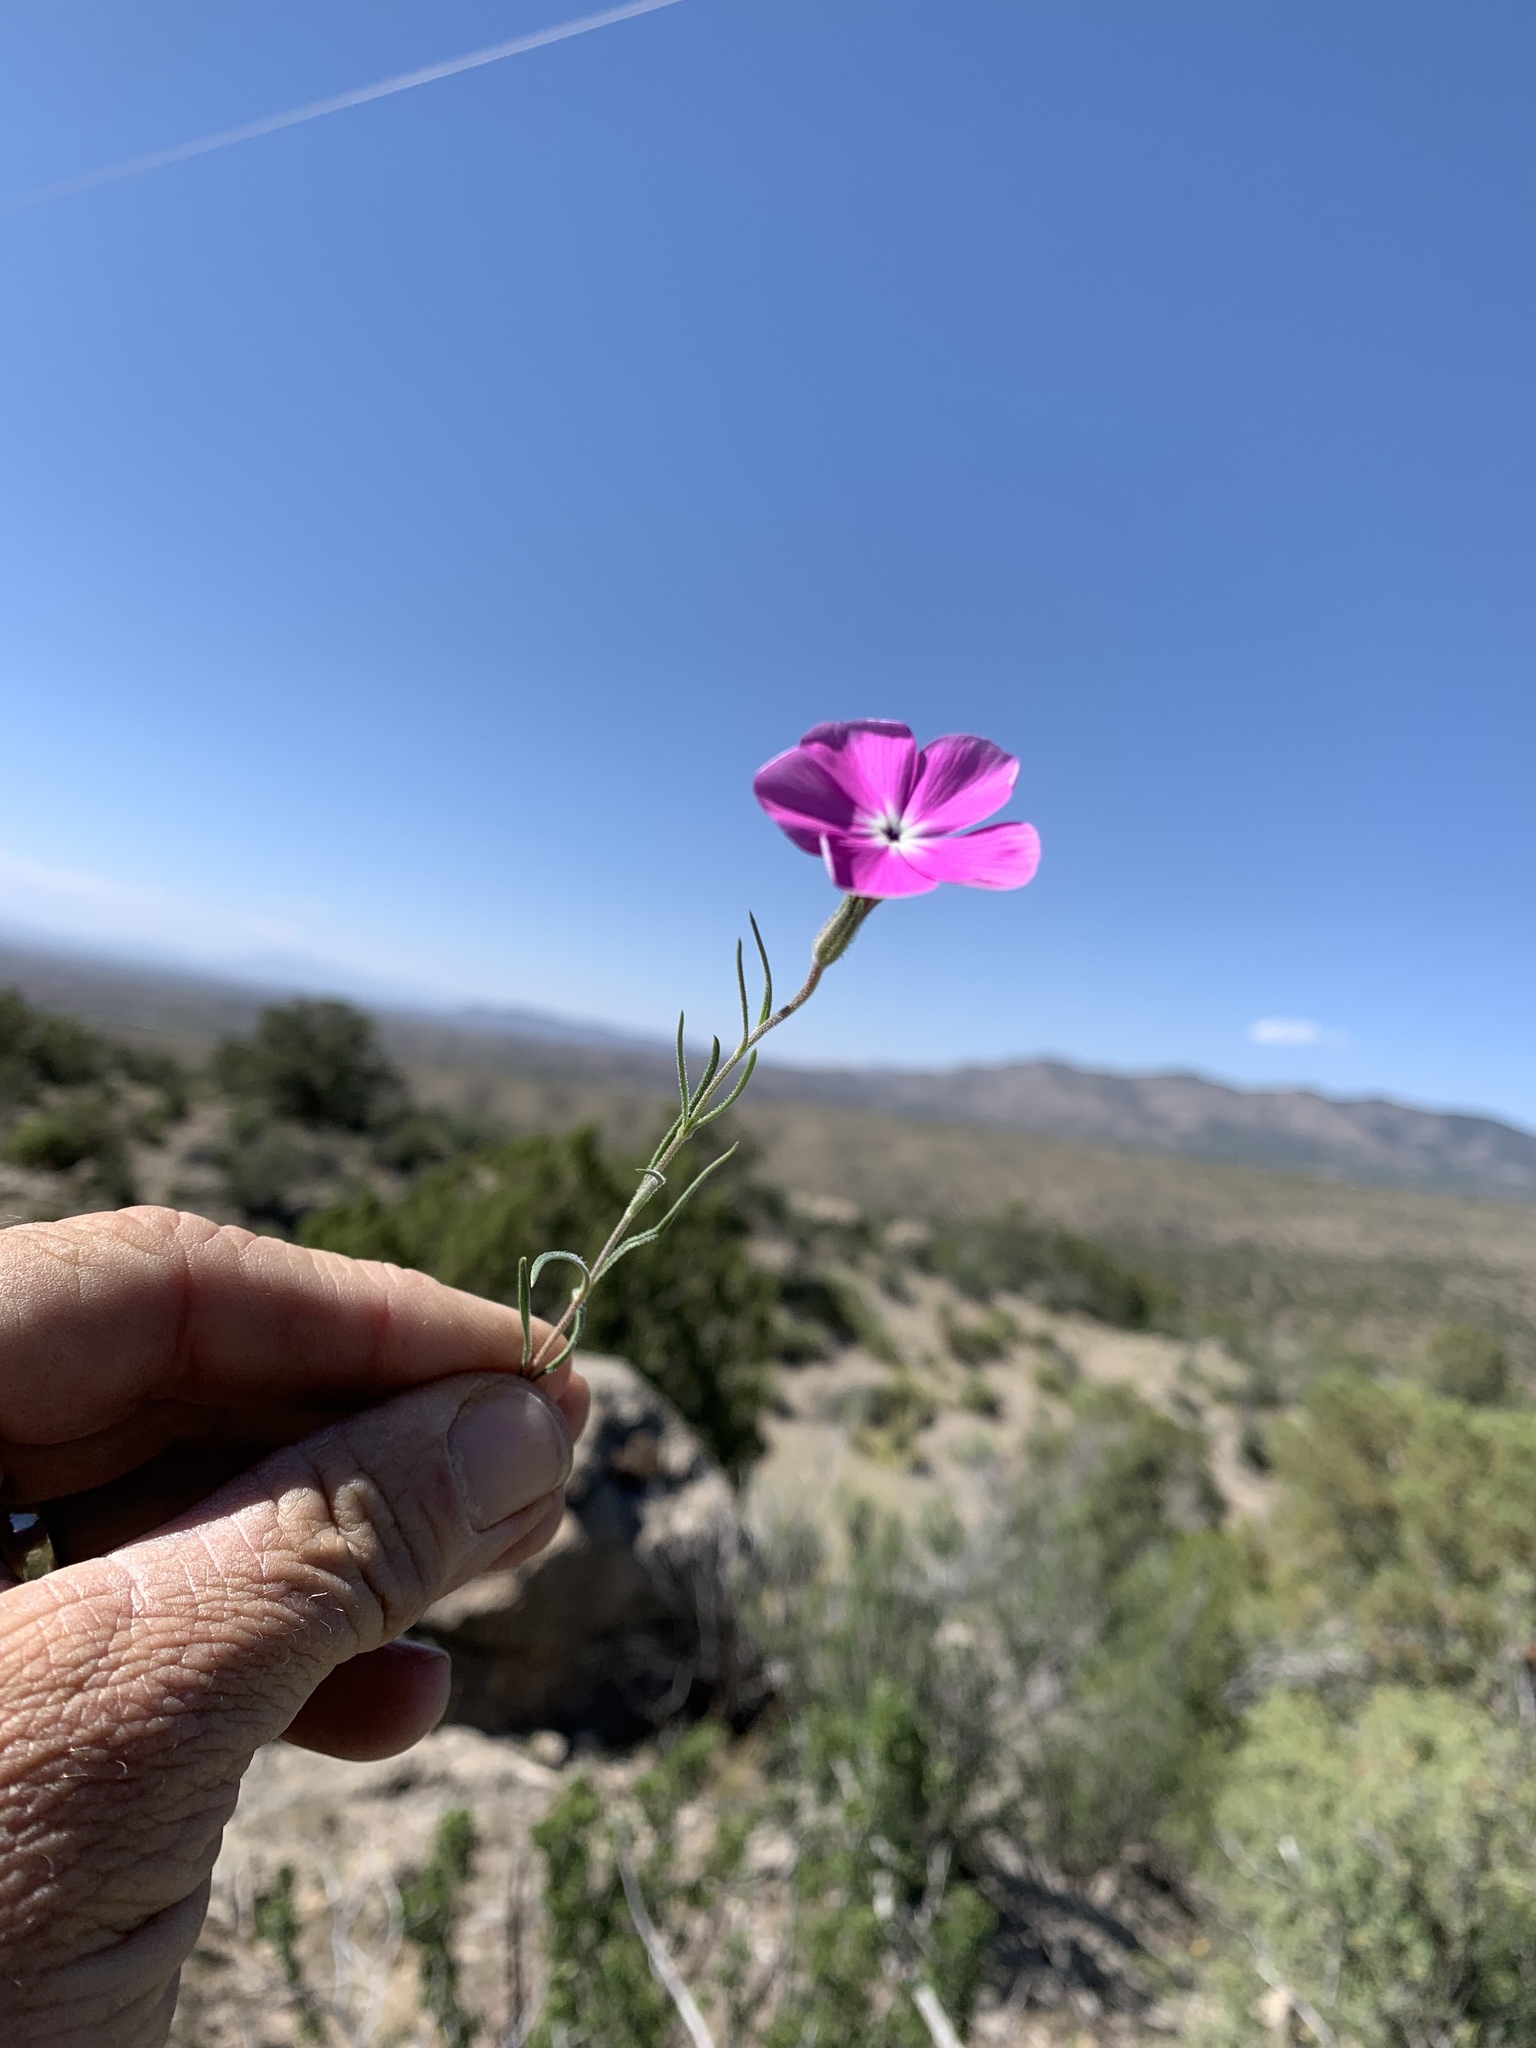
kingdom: Plantae
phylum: Tracheophyta
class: Magnoliopsida
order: Ericales
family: Polemoniaceae
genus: Phlox
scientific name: Phlox nana
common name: Santa fe phlox
